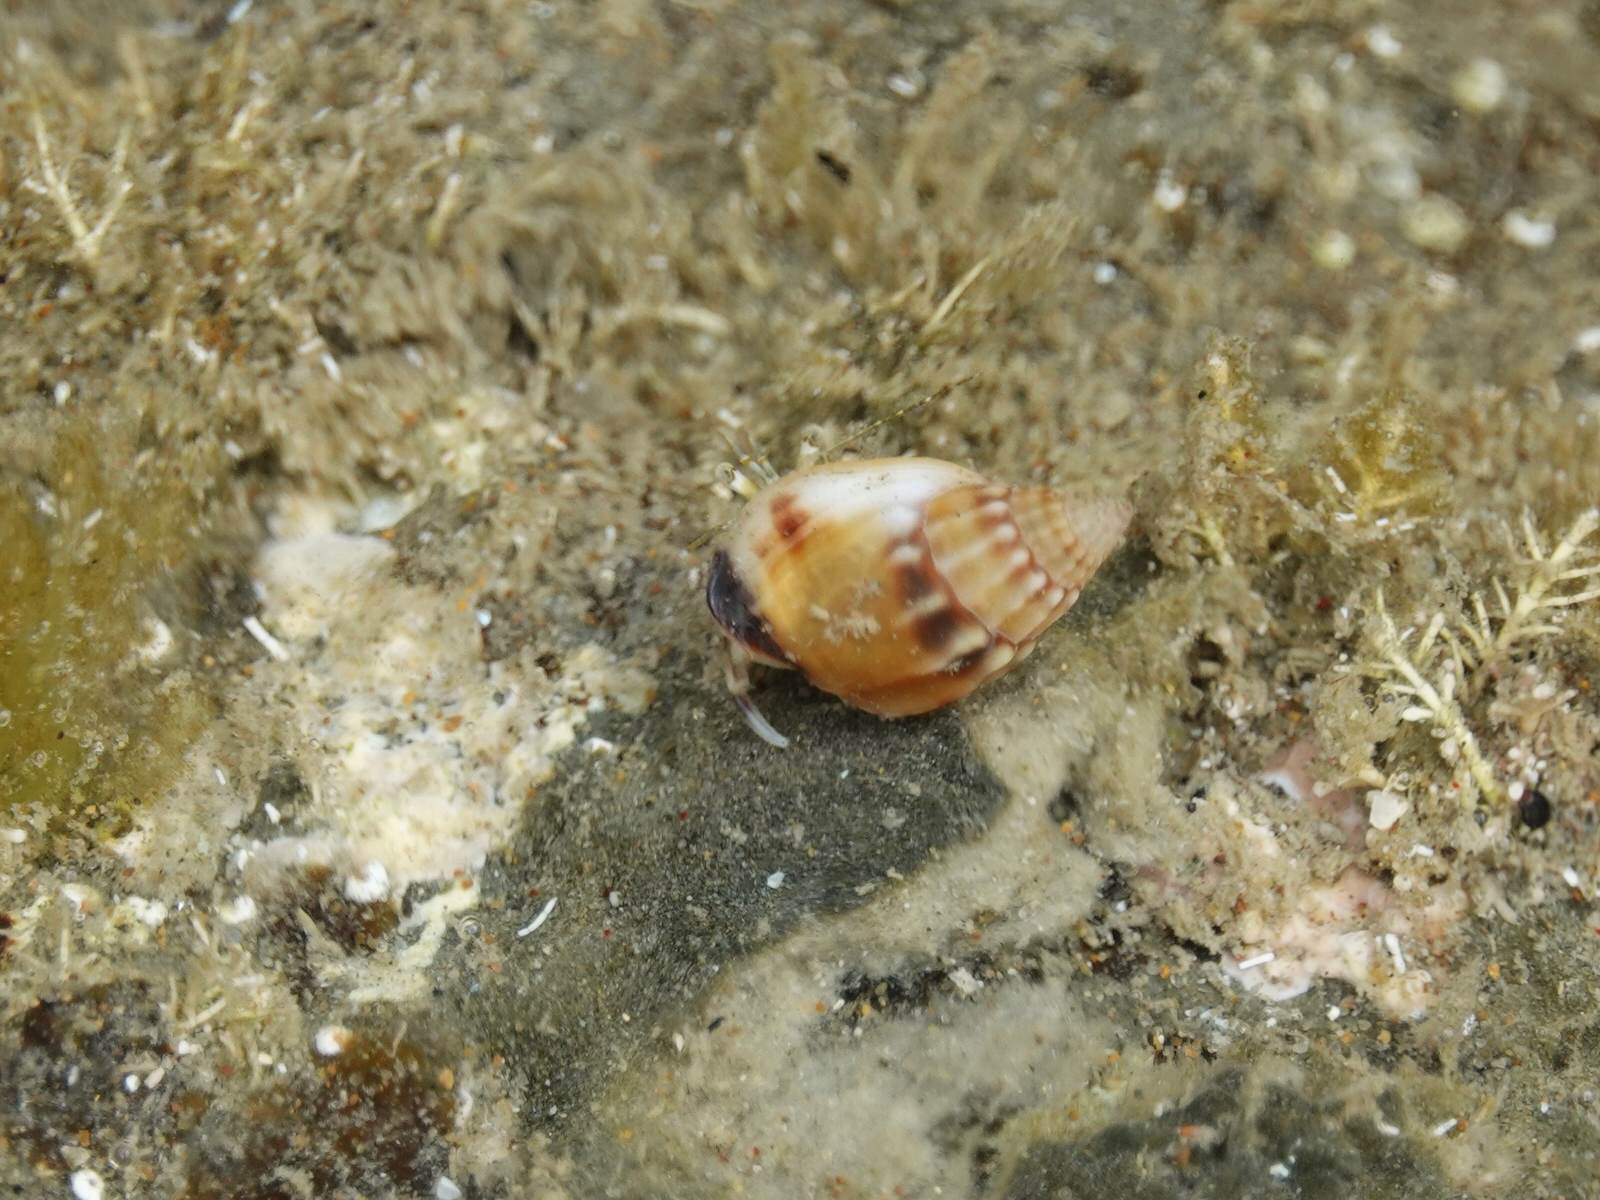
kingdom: Animalia
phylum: Mollusca
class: Gastropoda
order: Neogastropoda
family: Nassariidae
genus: Tritia
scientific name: Tritia burchardi
